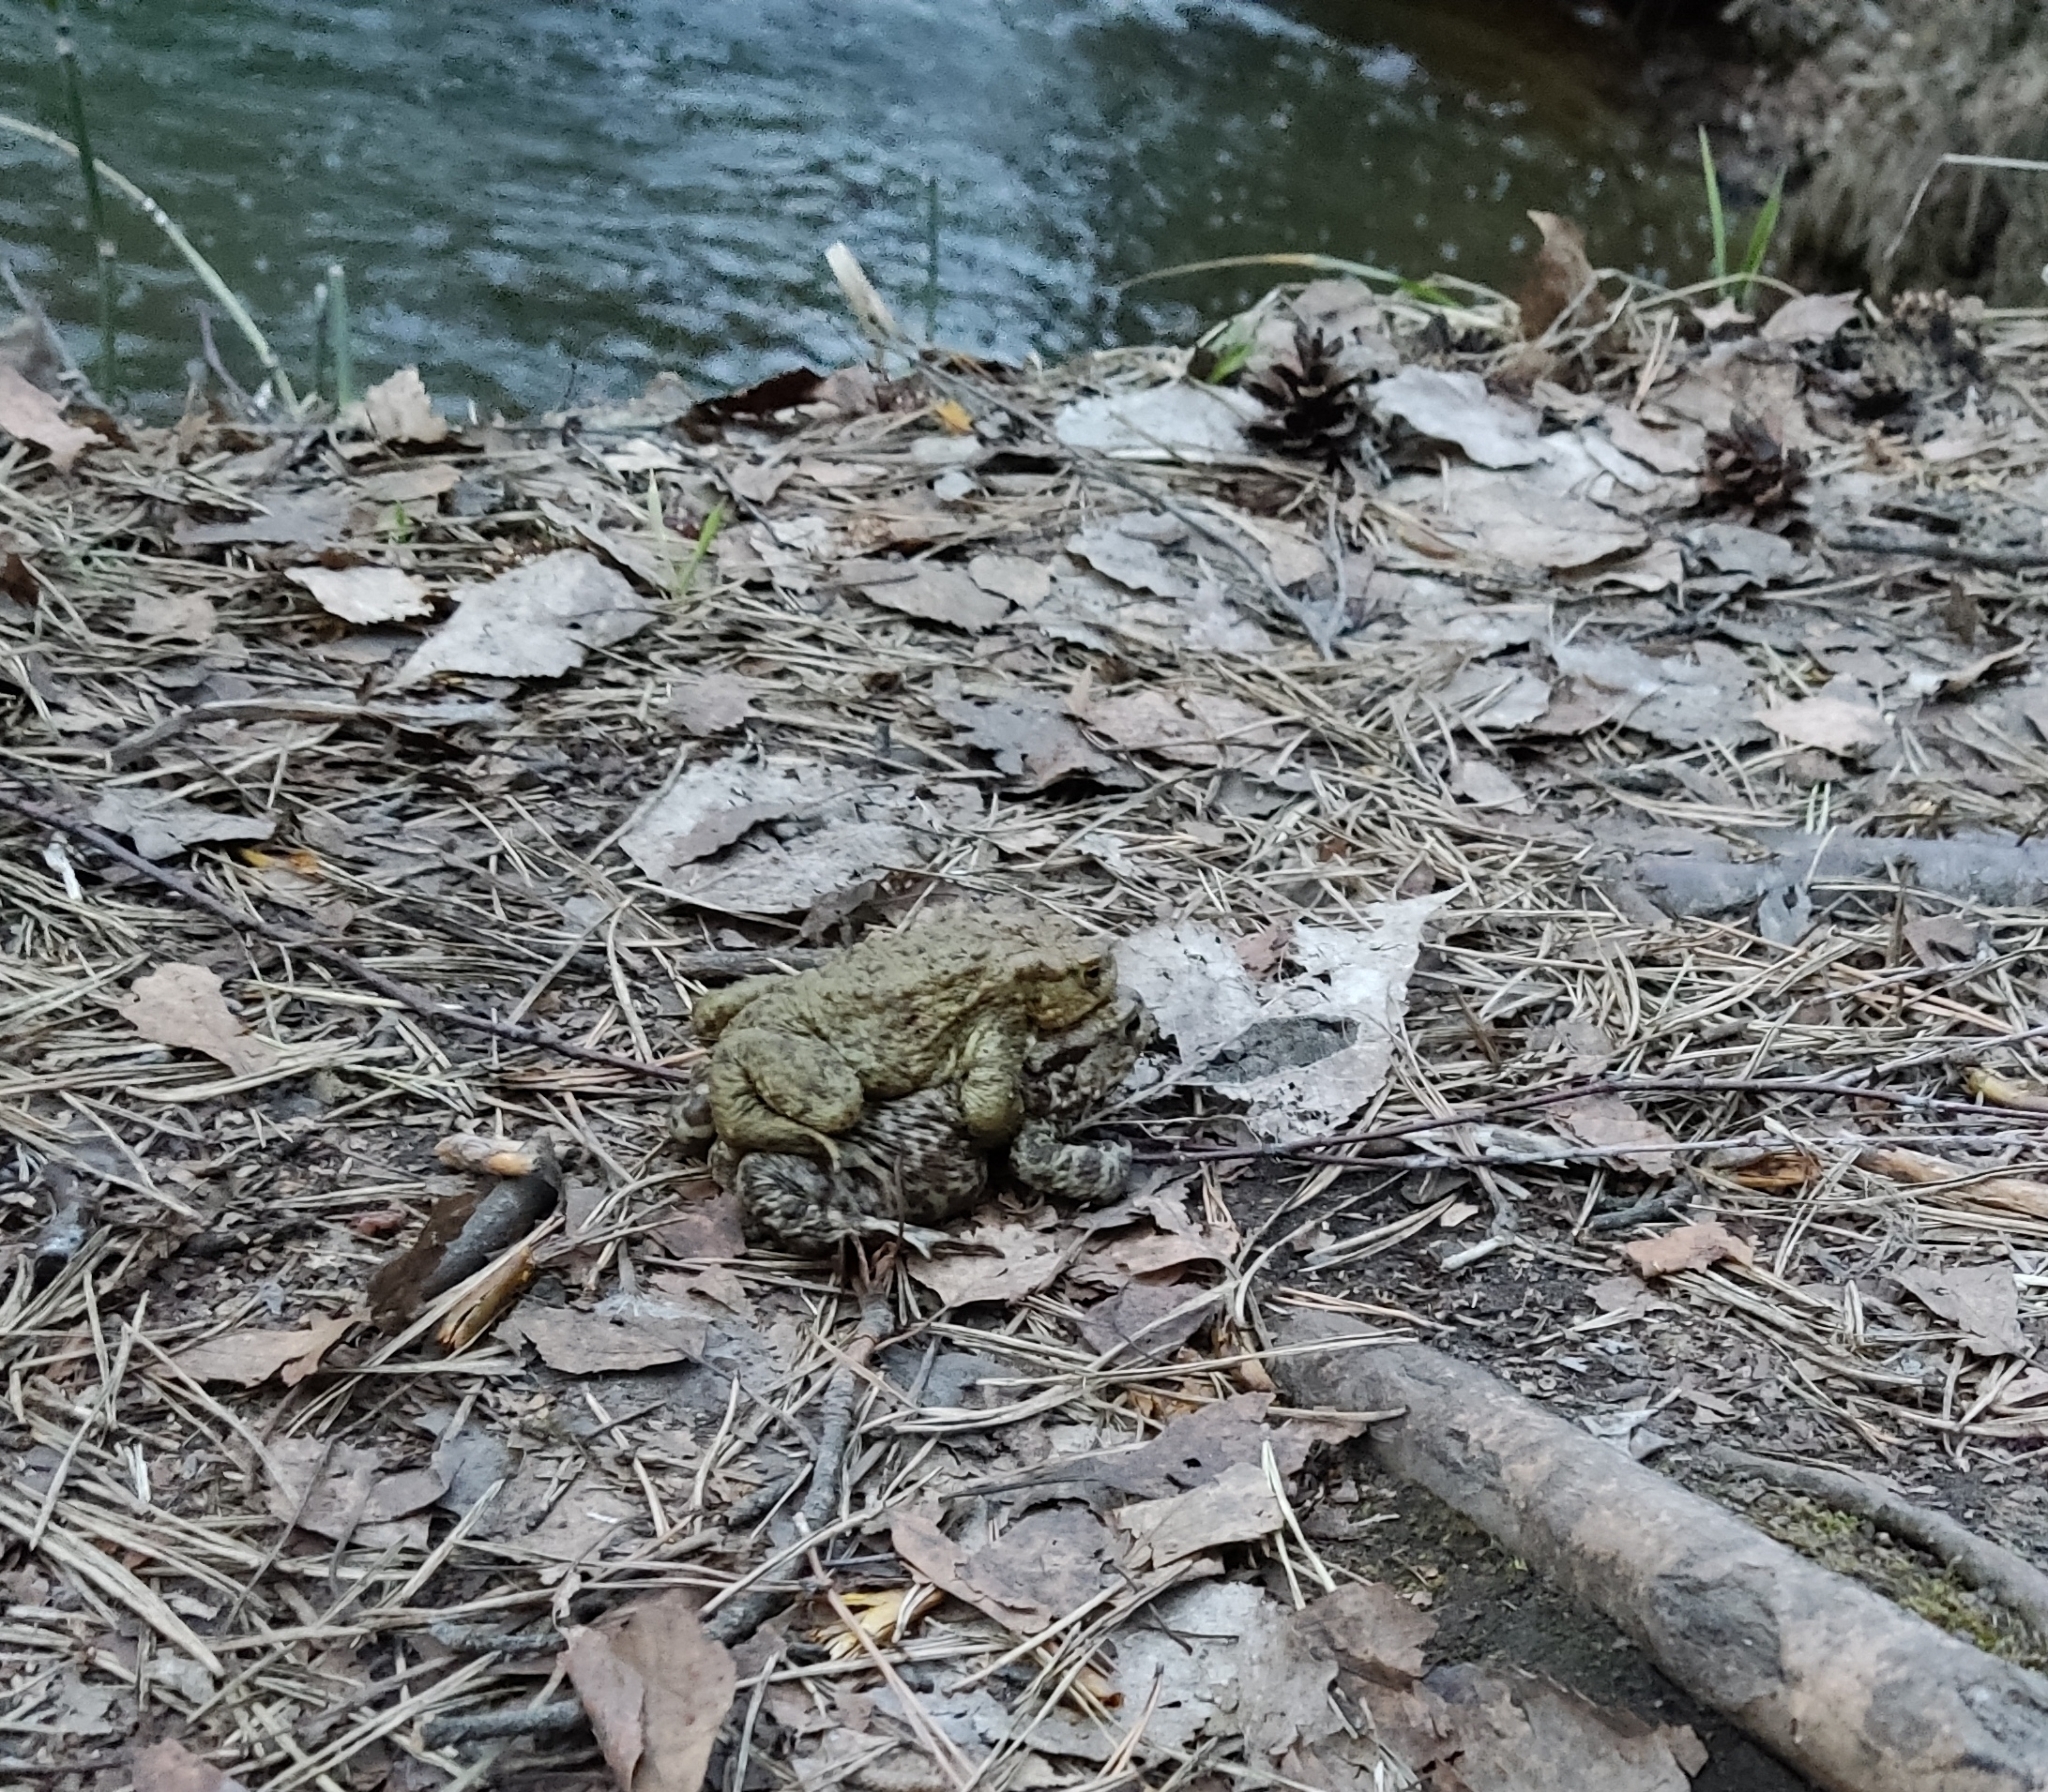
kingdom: Animalia
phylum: Chordata
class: Amphibia
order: Anura
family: Bufonidae
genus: Bufo
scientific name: Bufo bufo
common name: Common toad
